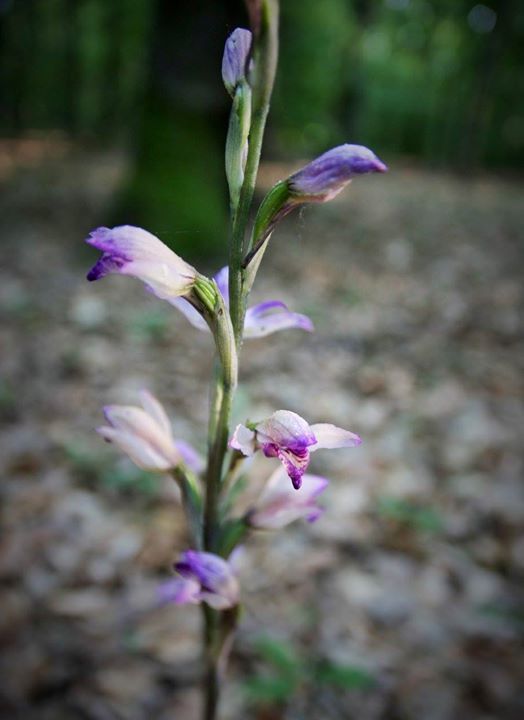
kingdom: Plantae
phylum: Tracheophyta
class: Liliopsida
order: Asparagales
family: Orchidaceae
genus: Limodorum
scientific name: Limodorum abortivum
